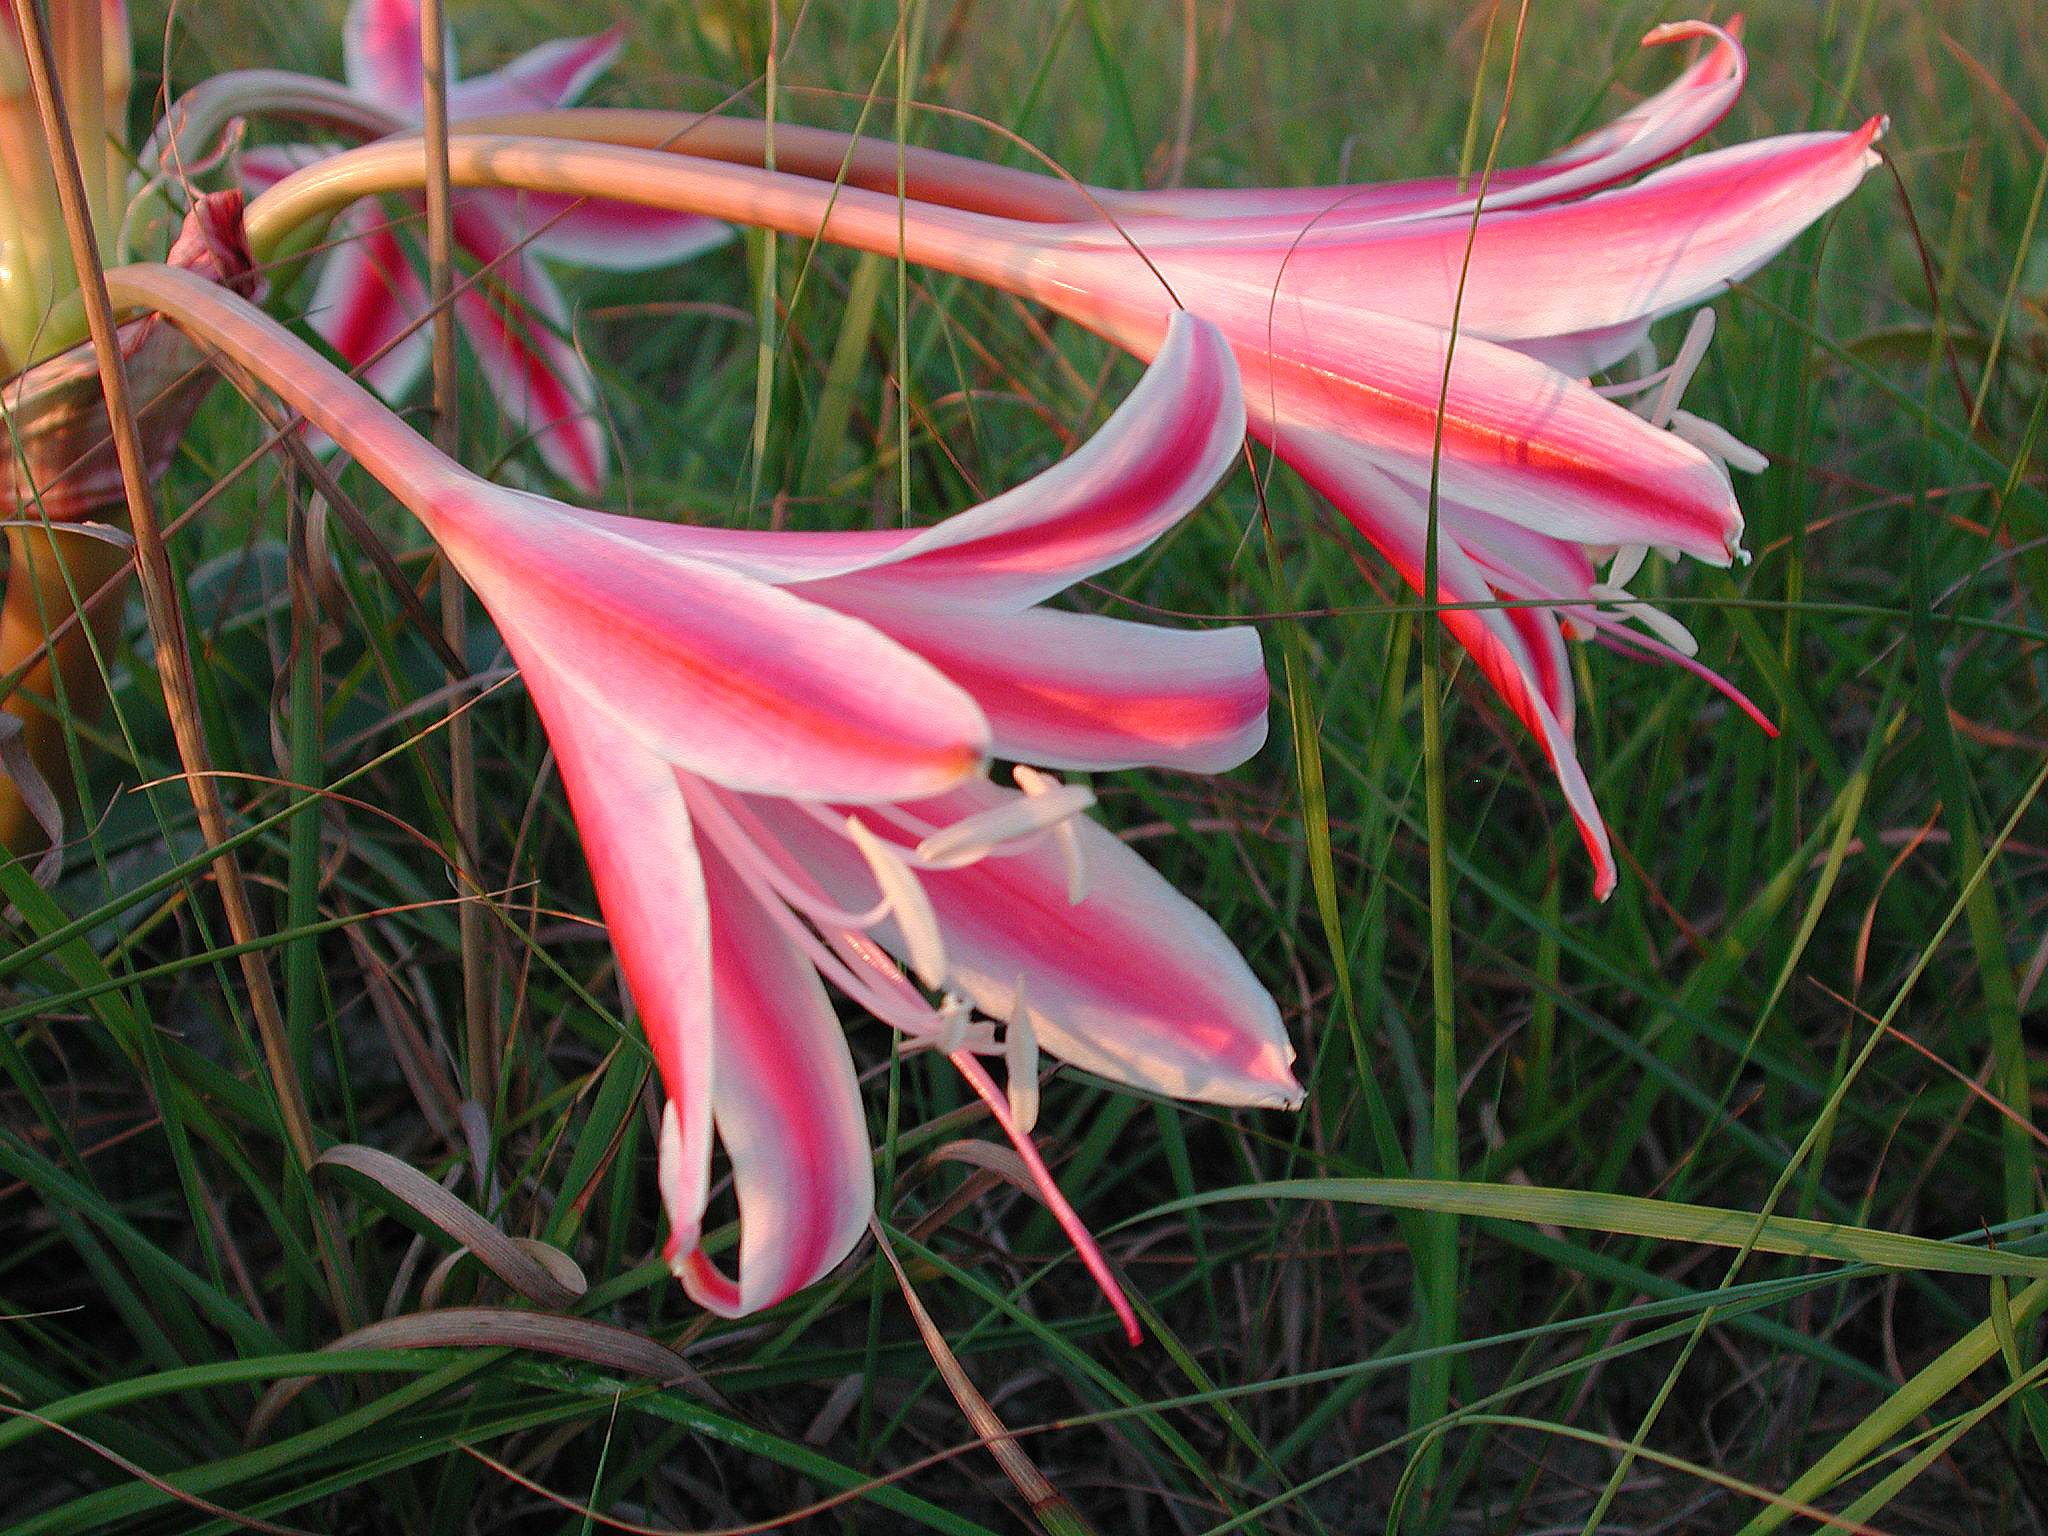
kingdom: Plantae
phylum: Tracheophyta
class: Liliopsida
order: Asparagales
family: Amaryllidaceae
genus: Crinum
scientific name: Crinum stuhlmannii
